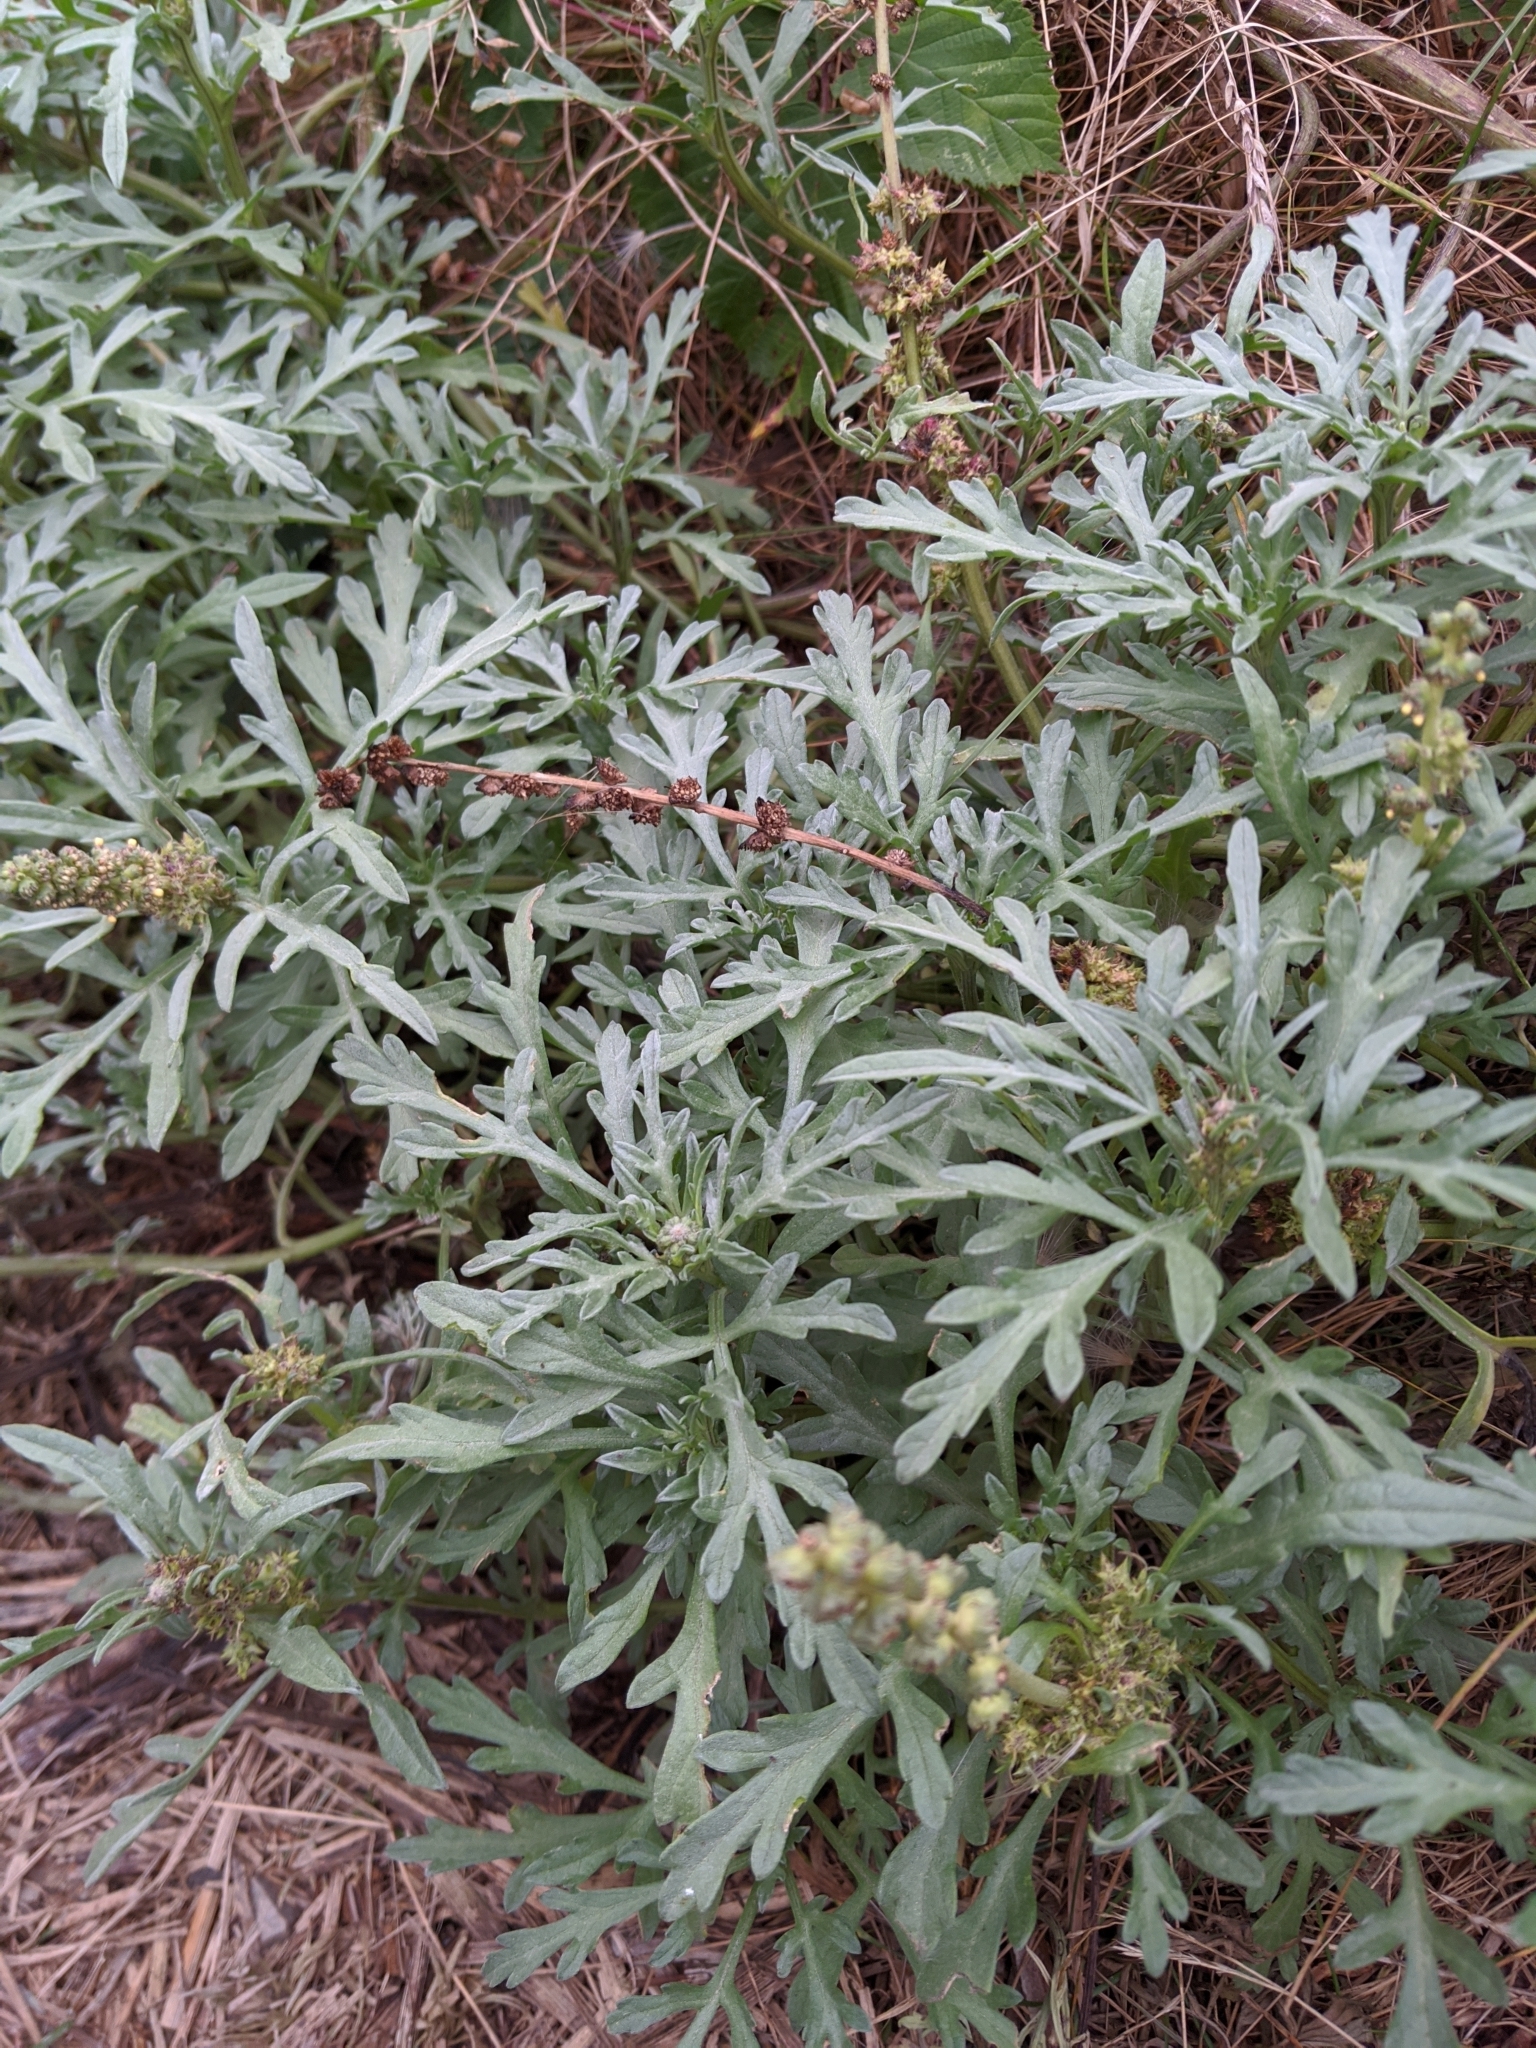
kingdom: Plantae
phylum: Tracheophyta
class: Magnoliopsida
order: Asterales
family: Asteraceae
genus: Ambrosia
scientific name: Ambrosia chamissonis
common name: Beachbur
